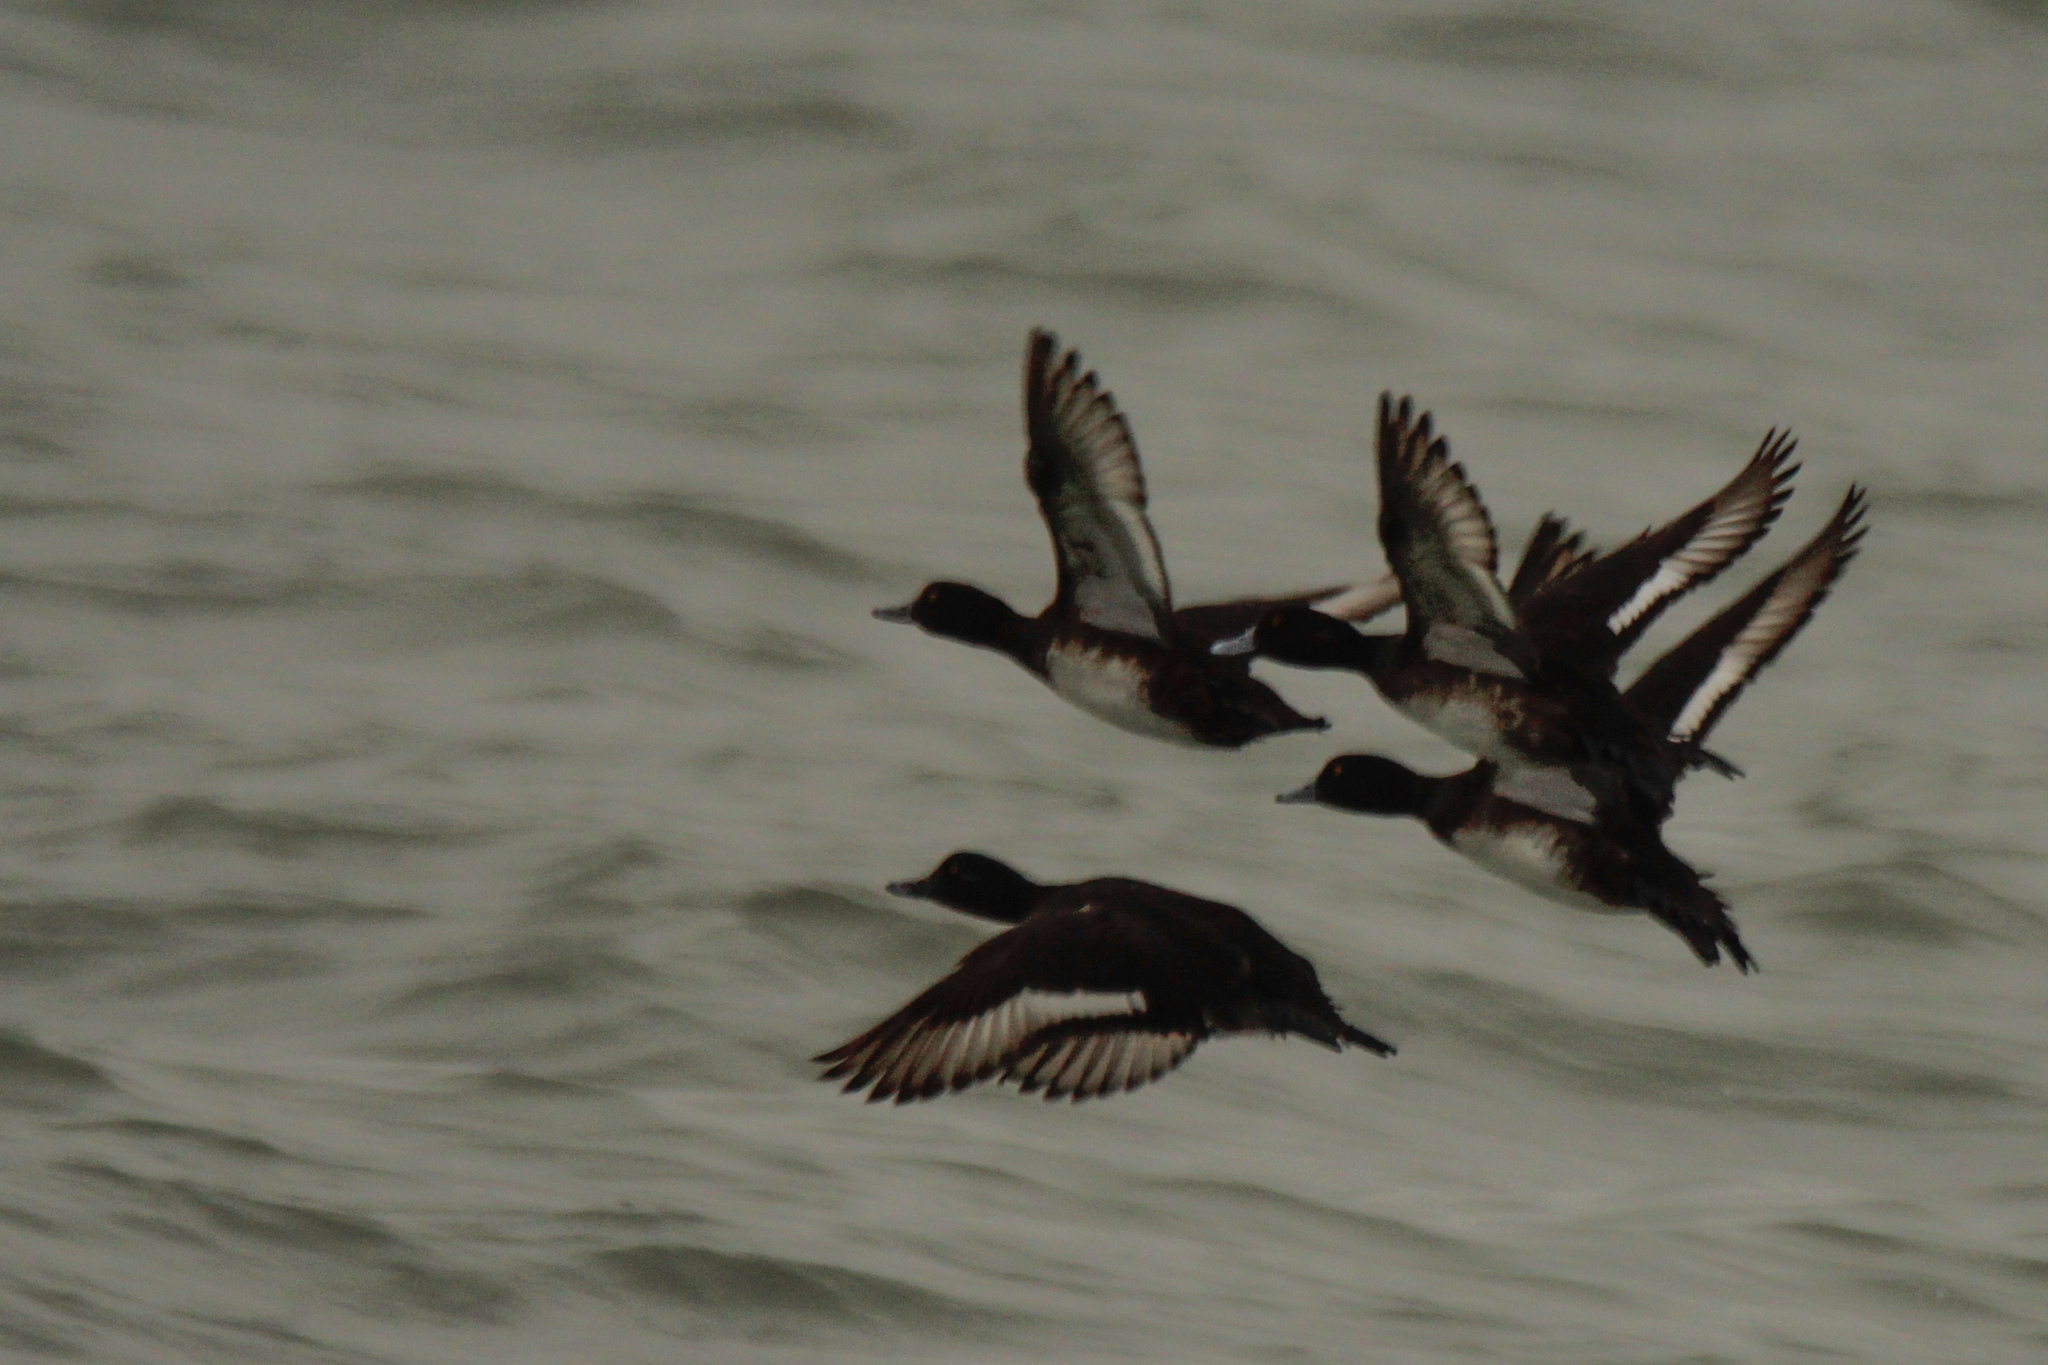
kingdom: Animalia
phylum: Chordata
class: Aves
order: Anseriformes
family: Anatidae
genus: Aythya
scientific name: Aythya fuligula
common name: Tufted duck
